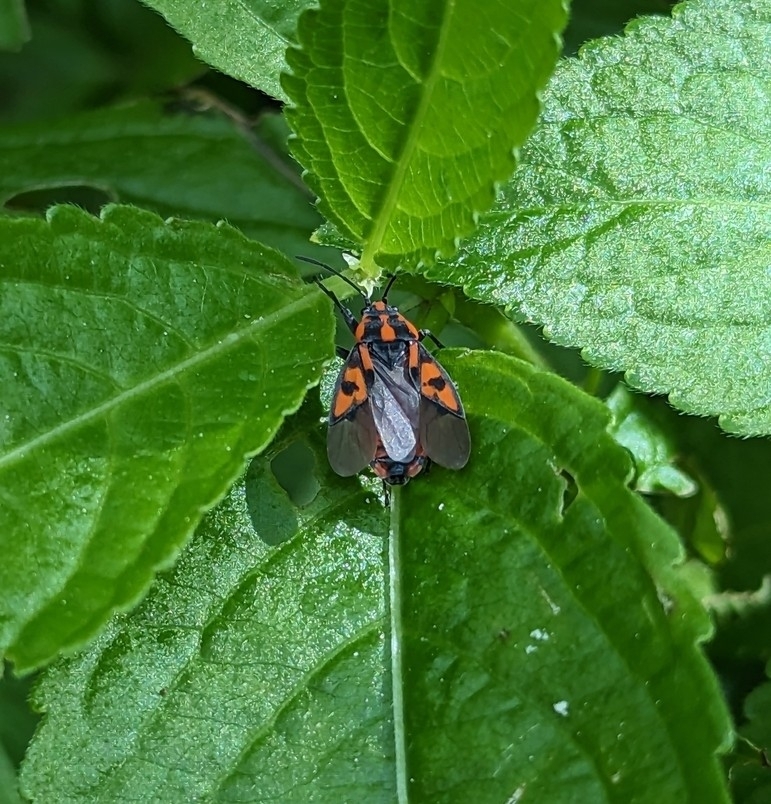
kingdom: Animalia
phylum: Arthropoda
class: Insecta
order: Hemiptera
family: Lygaeidae
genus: Spilostethus
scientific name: Spilostethus saxatilis
